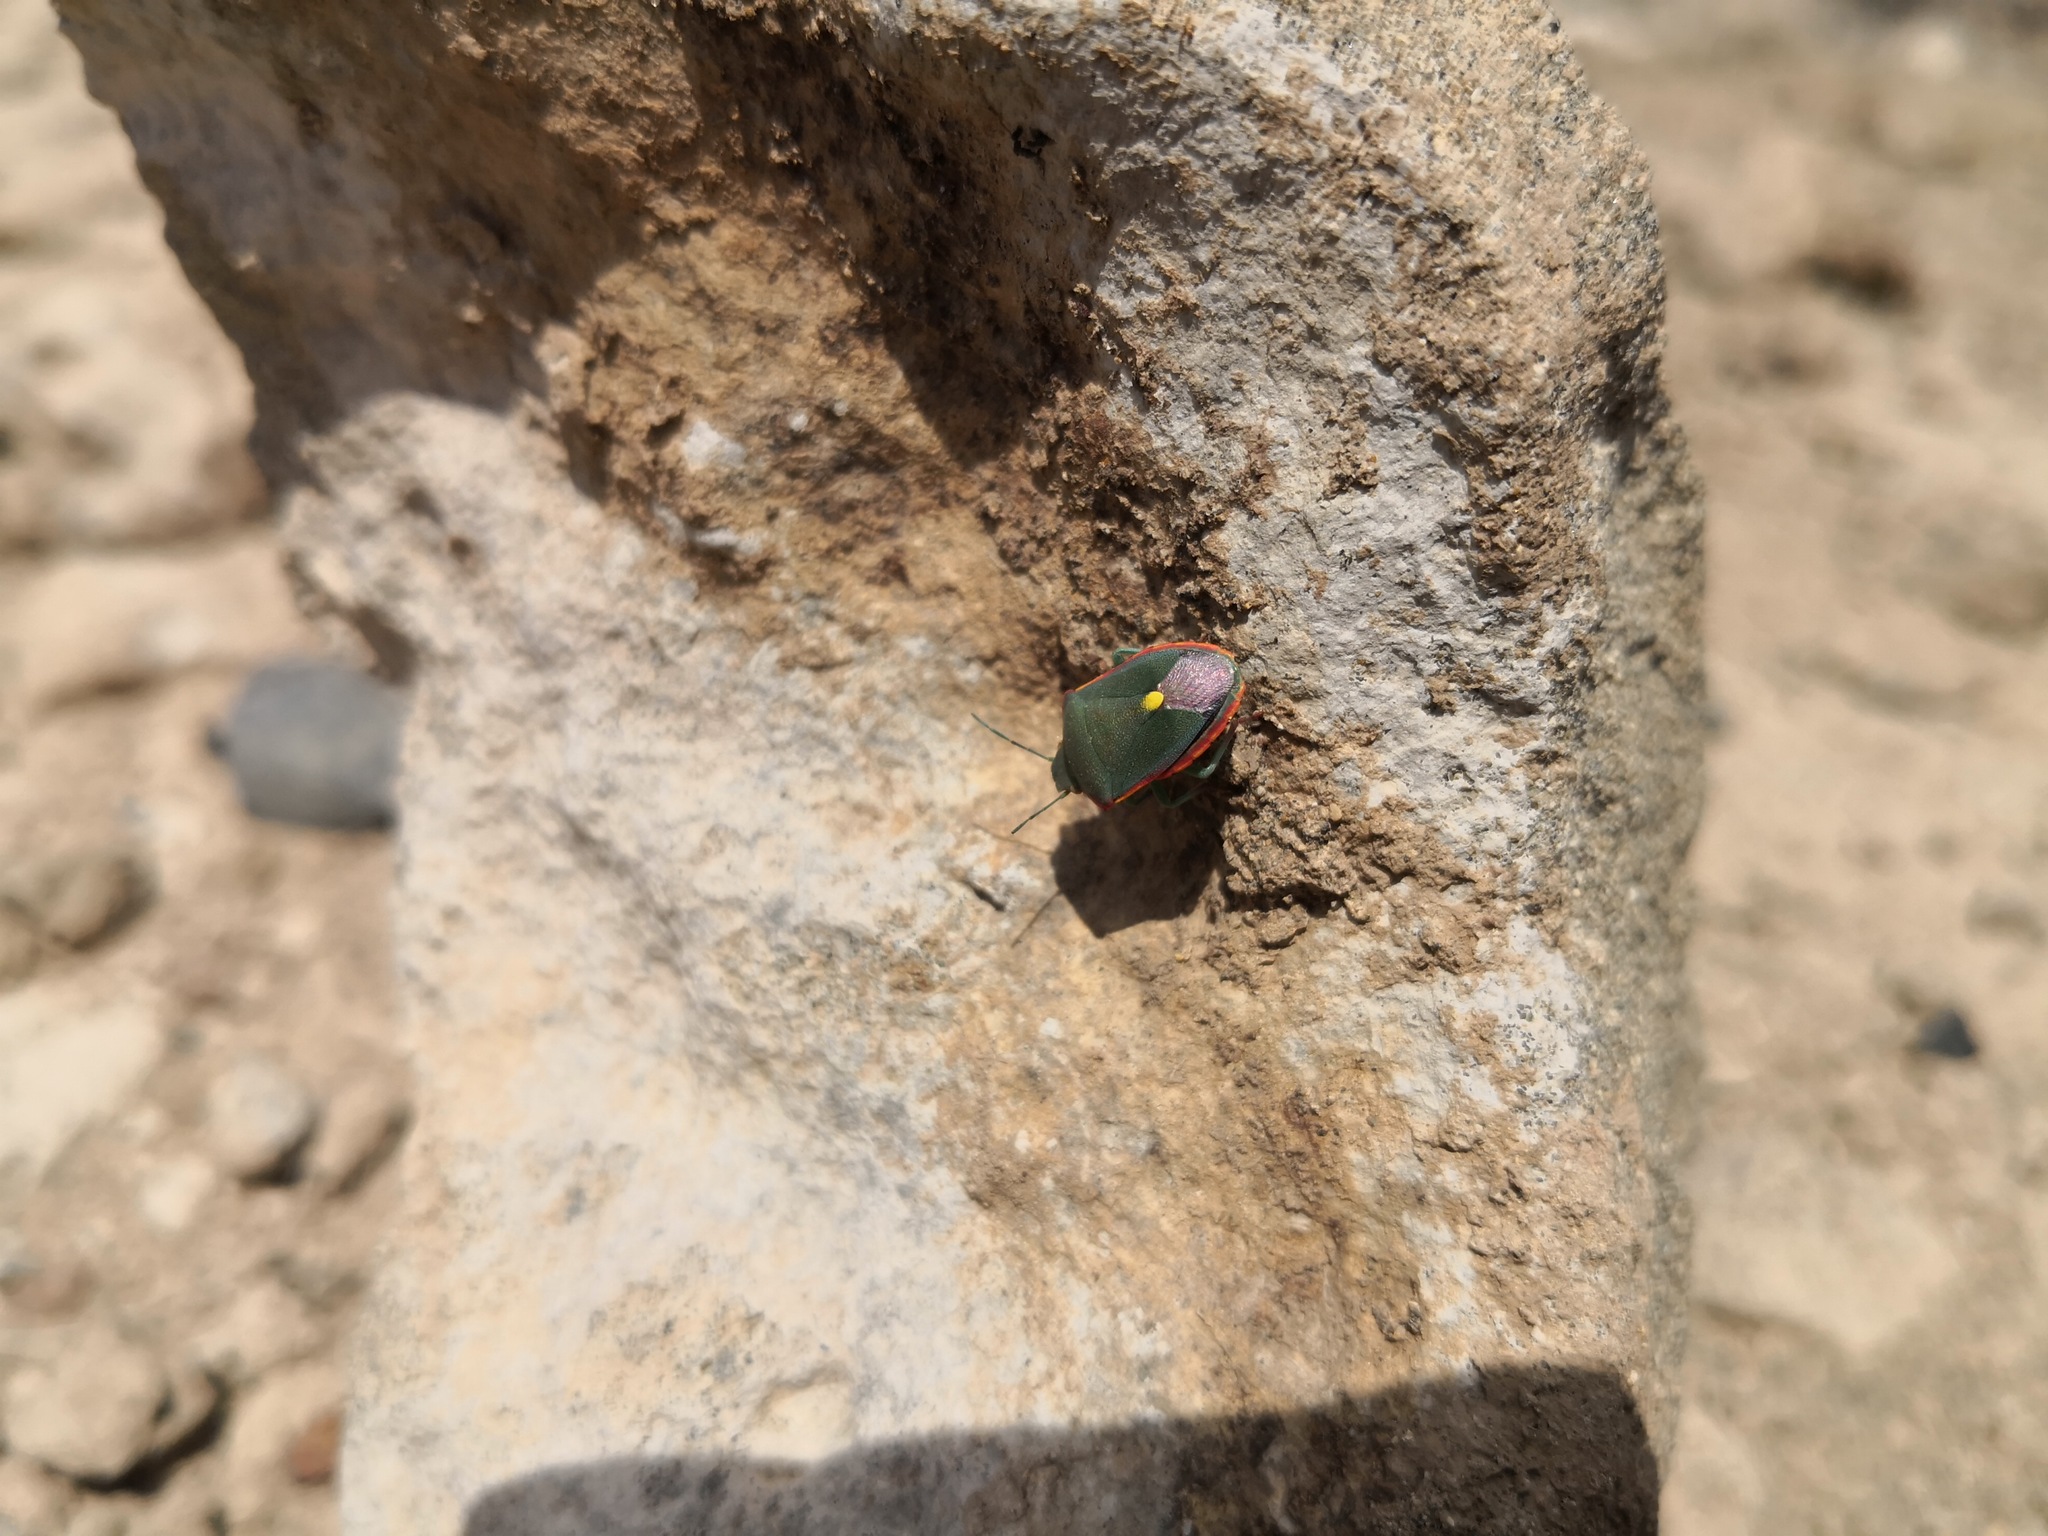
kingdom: Animalia
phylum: Arthropoda
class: Insecta
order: Hemiptera
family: Pentatomidae
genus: Brachynema
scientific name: Brachynema cinctum
